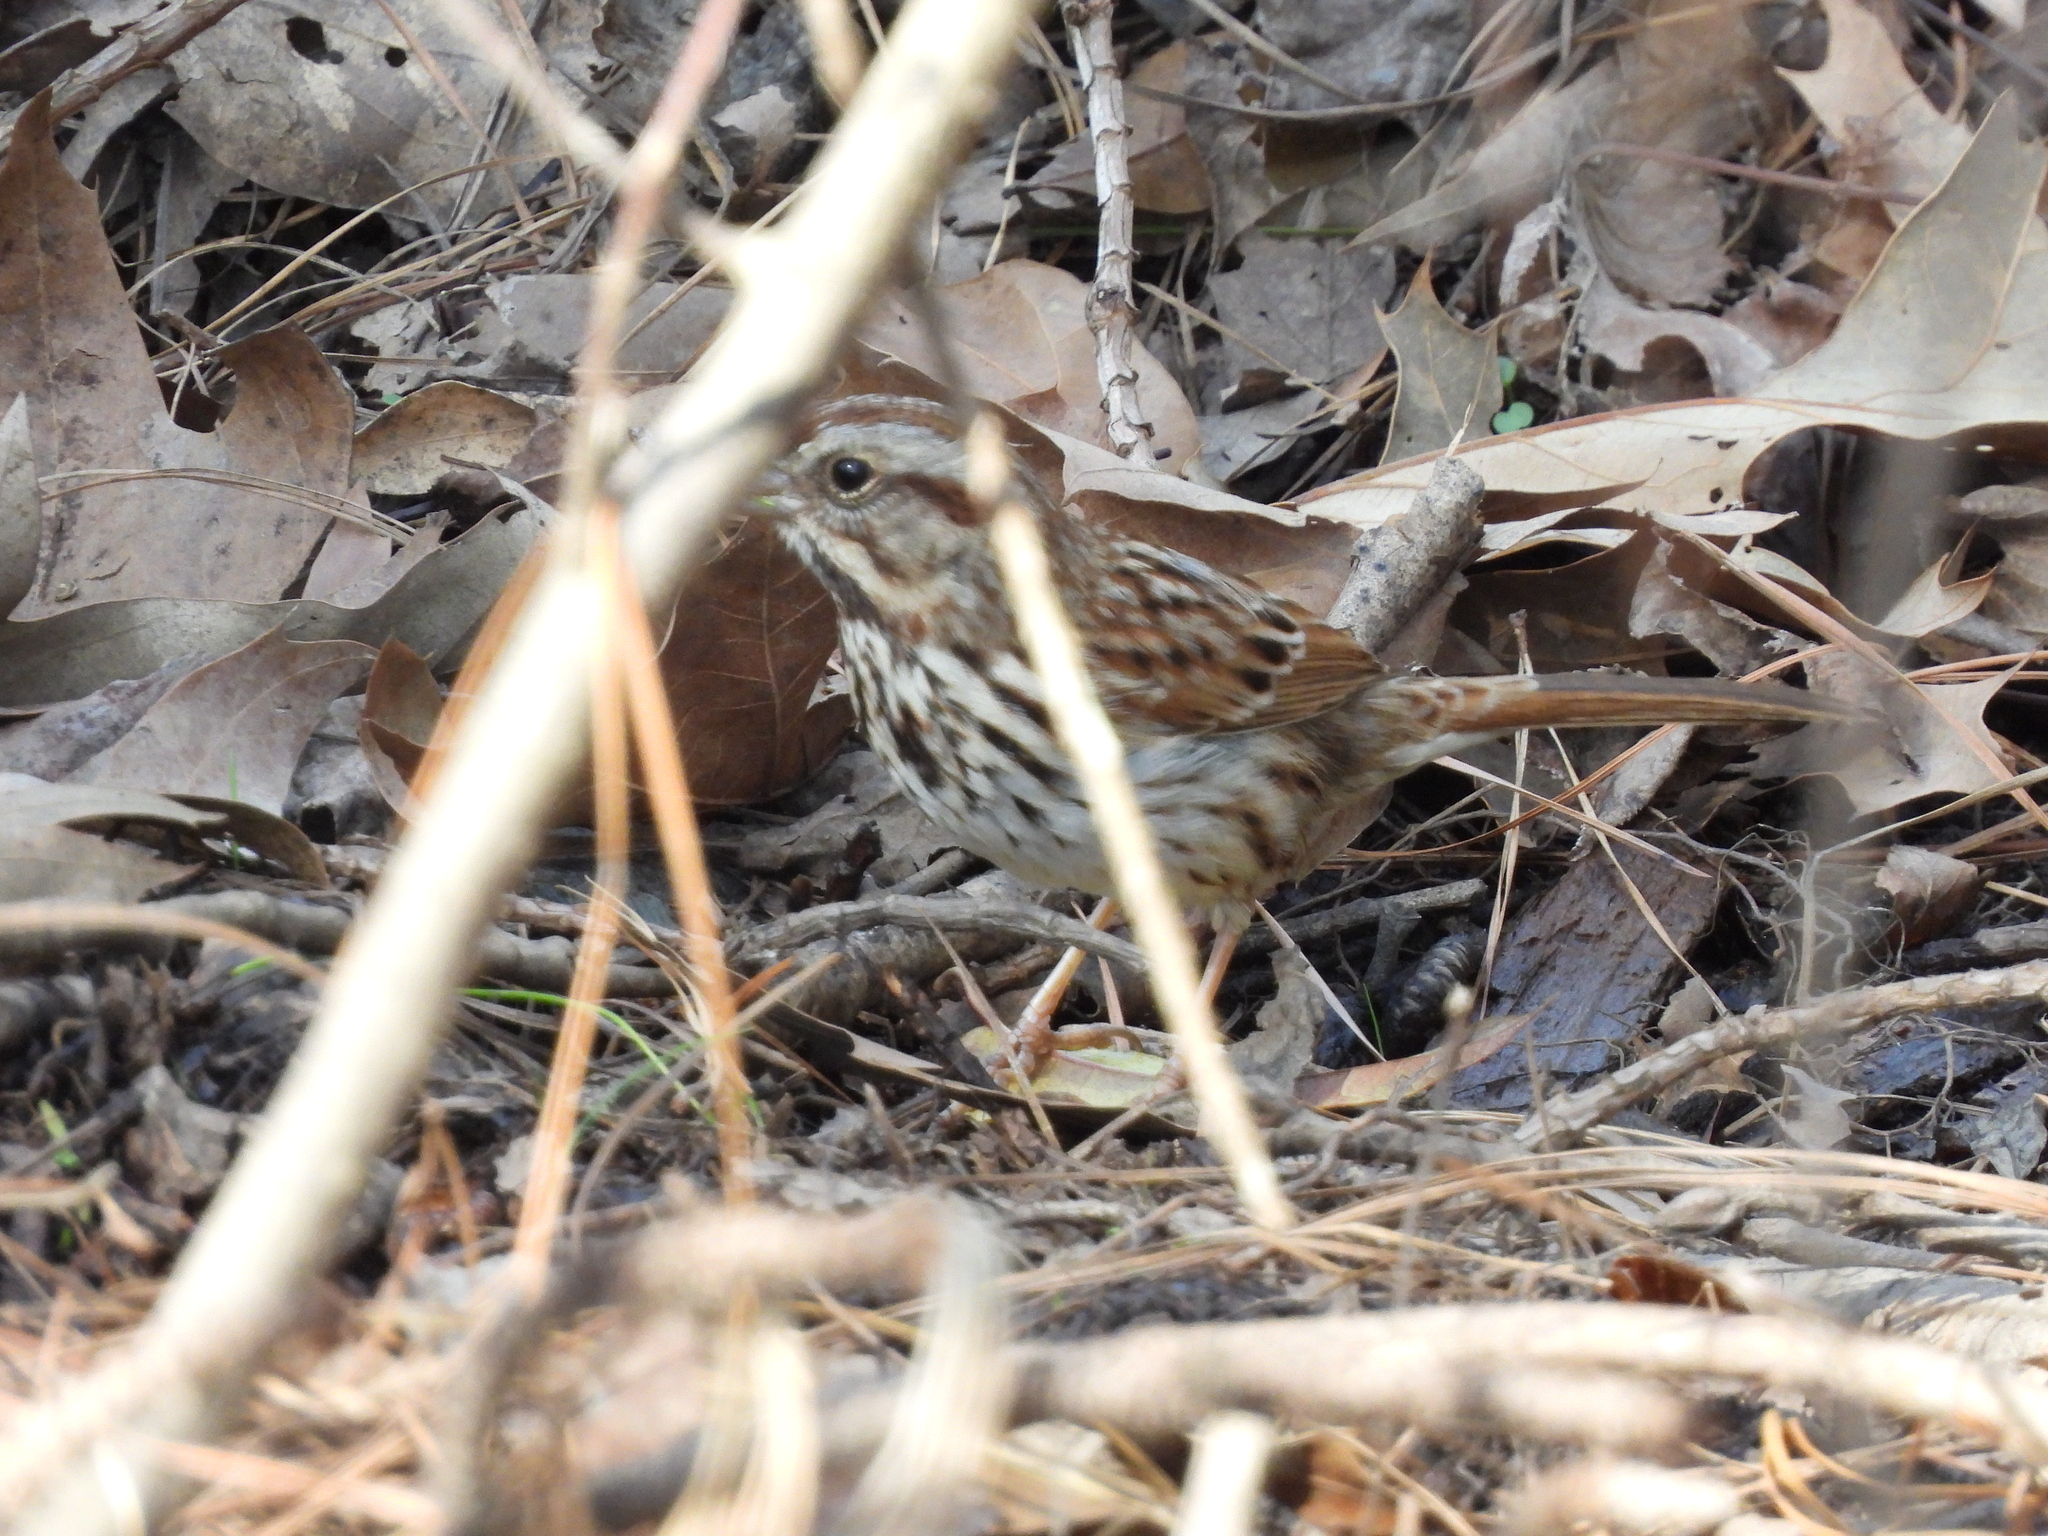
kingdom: Animalia
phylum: Chordata
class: Aves
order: Passeriformes
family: Passerellidae
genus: Melospiza
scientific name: Melospiza melodia
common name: Song sparrow
